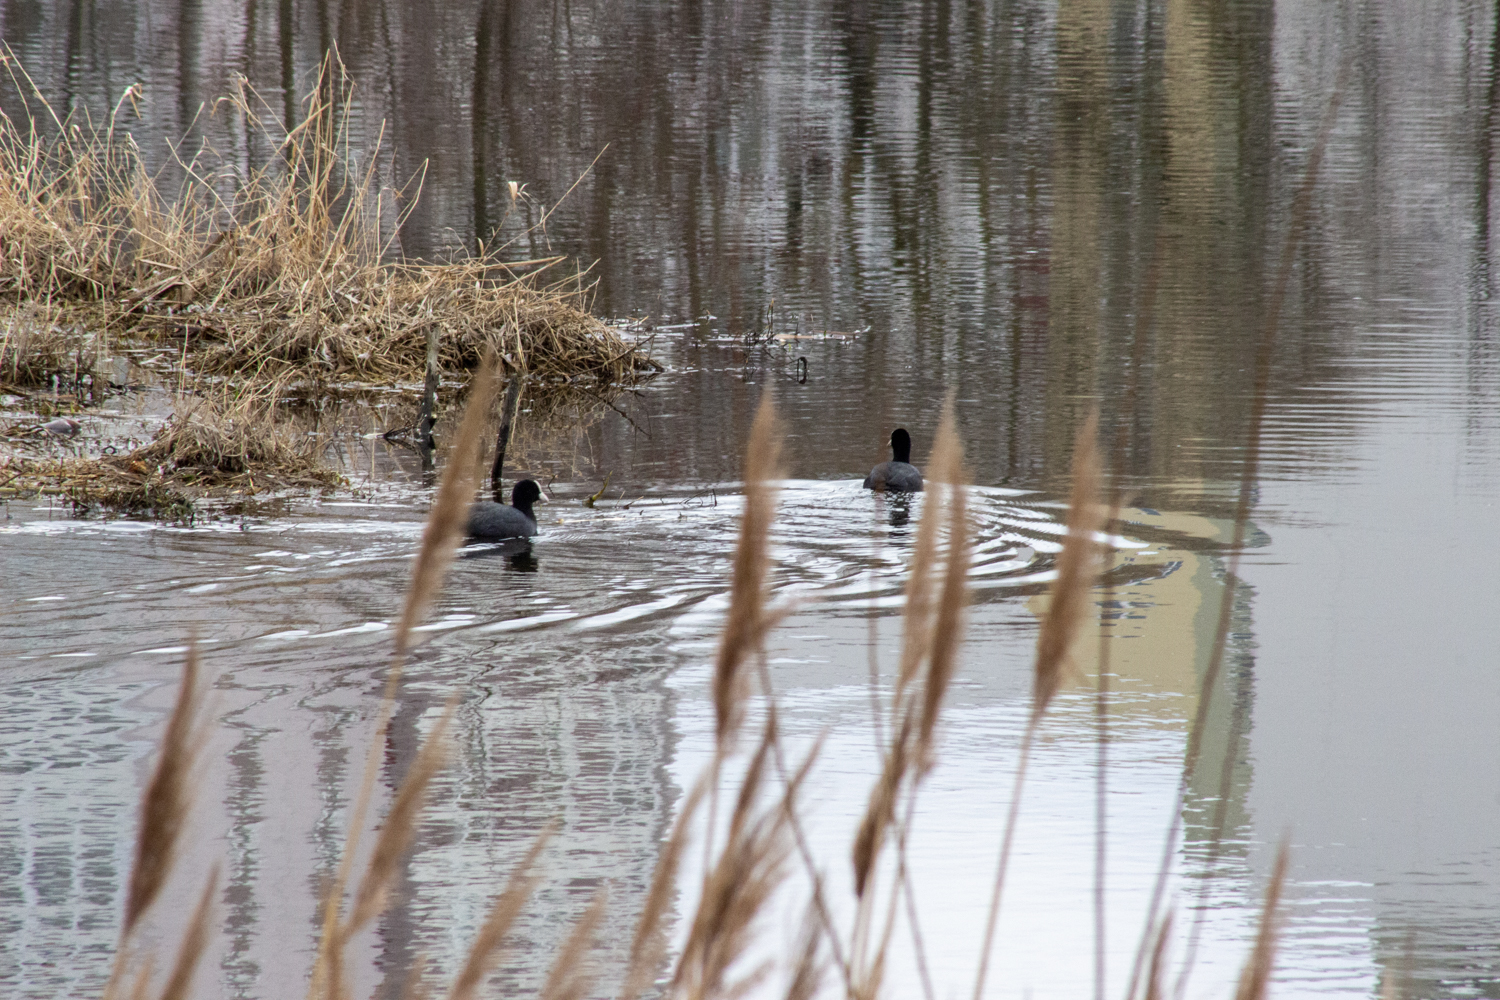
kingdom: Animalia
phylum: Chordata
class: Aves
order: Gruiformes
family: Rallidae
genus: Fulica
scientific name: Fulica atra
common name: Eurasian coot
